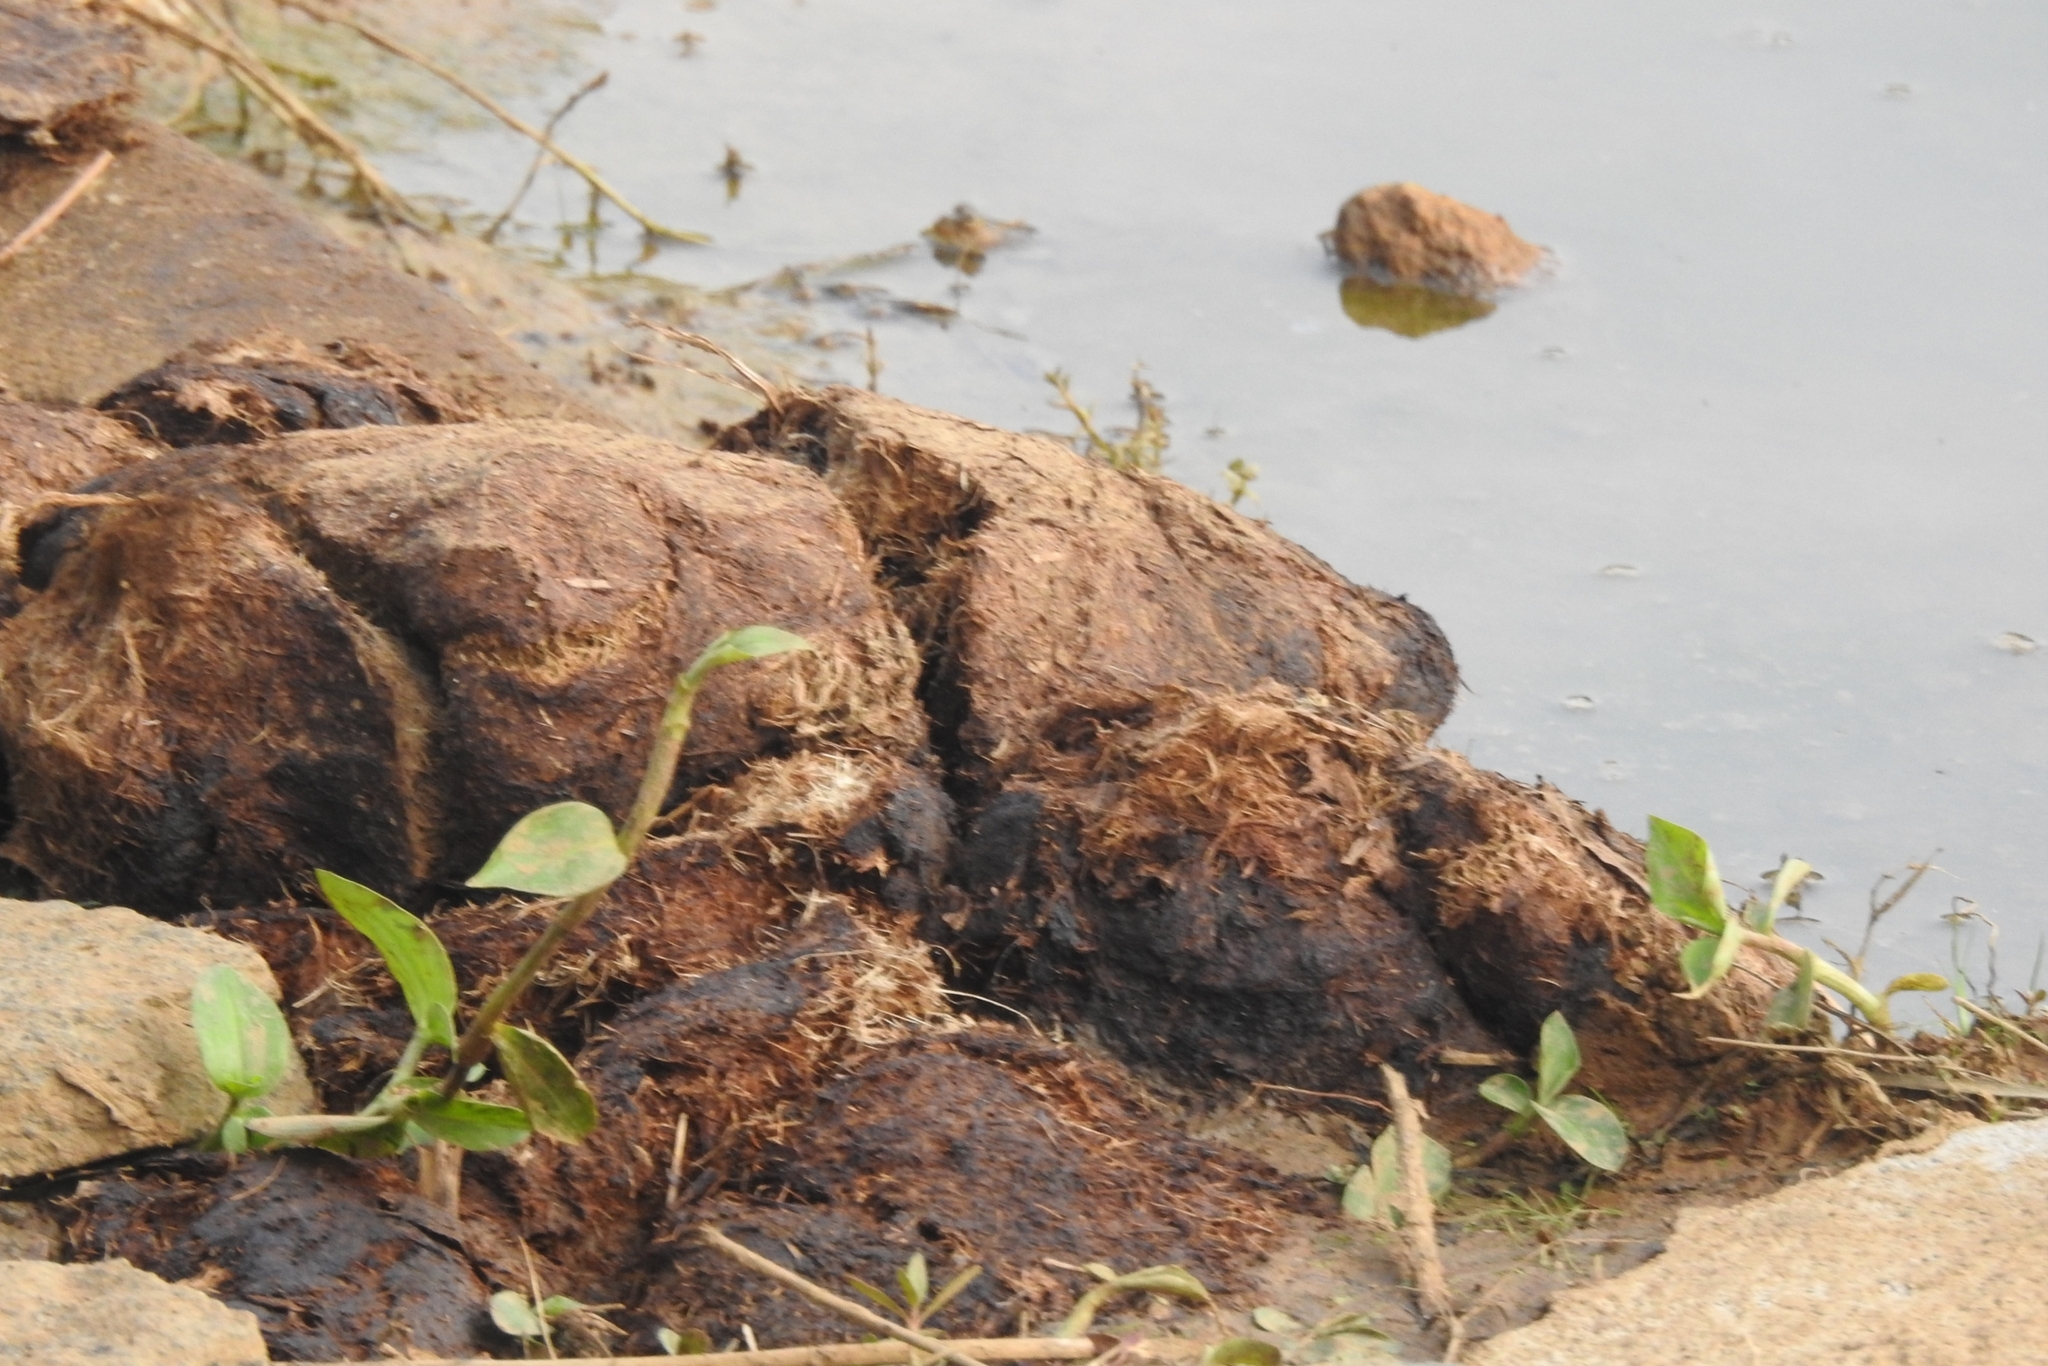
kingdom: Animalia
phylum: Chordata
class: Mammalia
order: Proboscidea
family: Elephantidae
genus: Elephas
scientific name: Elephas maximus
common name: Asian elephant
